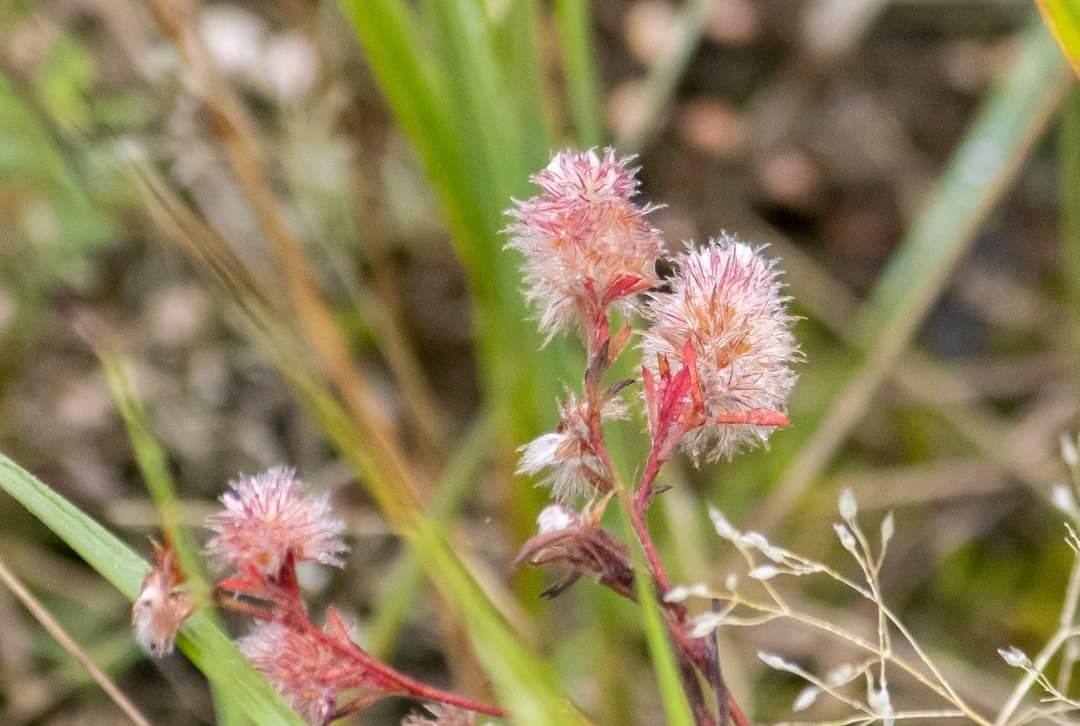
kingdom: Plantae
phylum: Tracheophyta
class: Magnoliopsida
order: Fabales
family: Fabaceae
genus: Trifolium
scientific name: Trifolium arvense
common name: Hare's-foot clover
